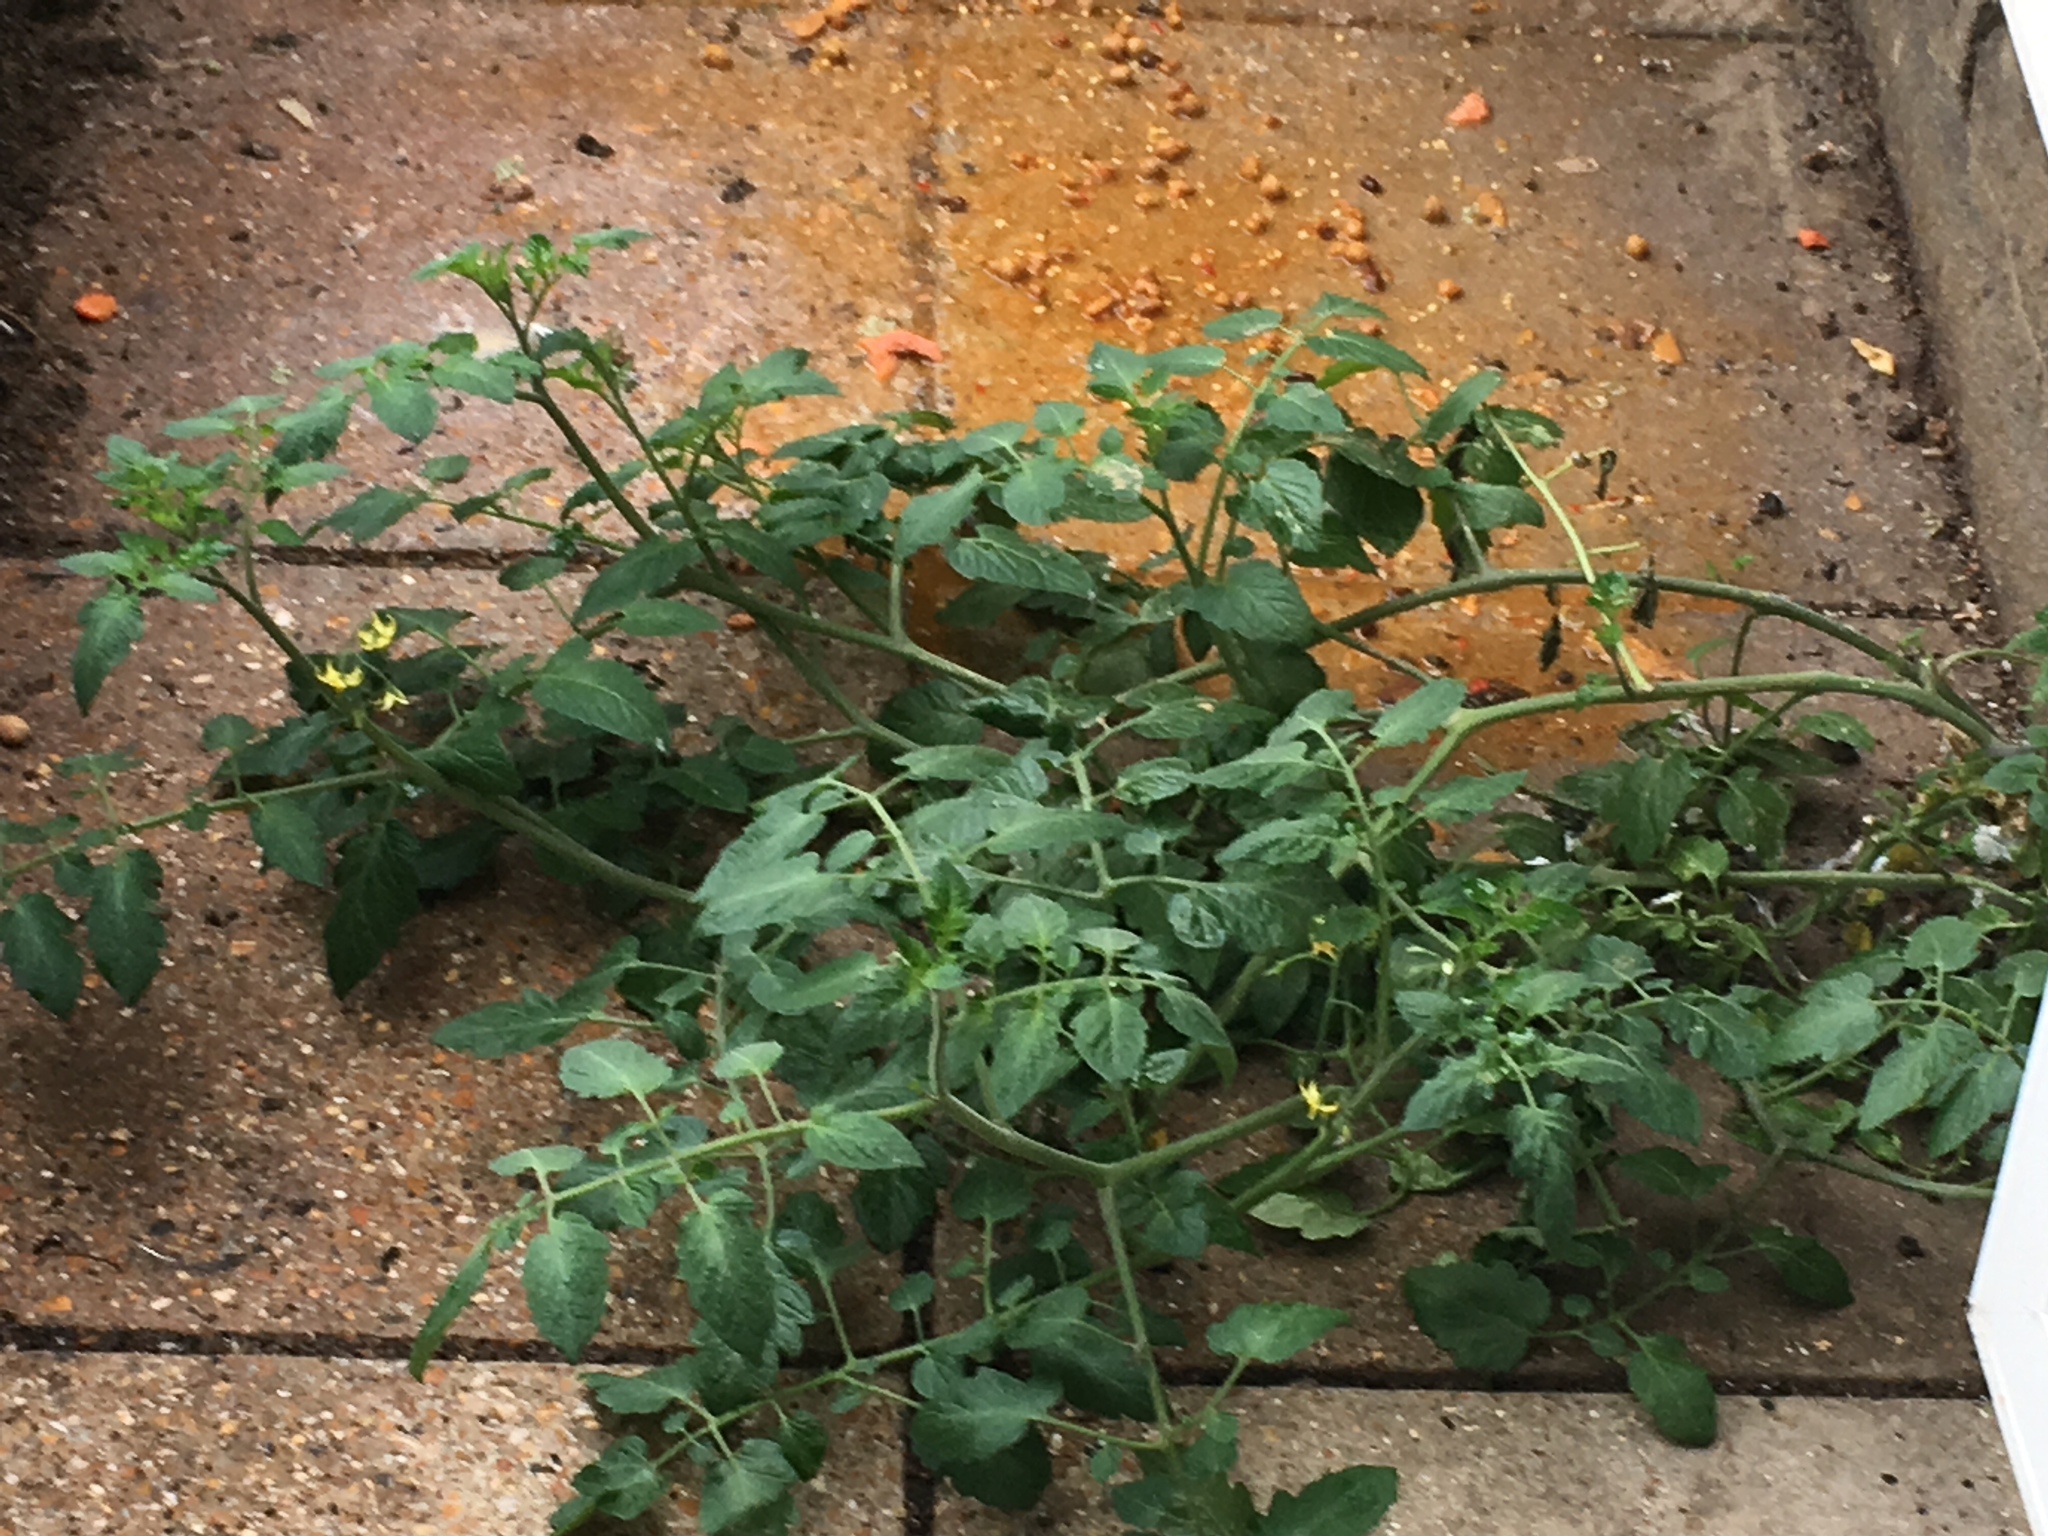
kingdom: Plantae
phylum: Tracheophyta
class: Magnoliopsida
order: Solanales
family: Solanaceae
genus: Solanum
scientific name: Solanum lycopersicum
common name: Garden tomato
